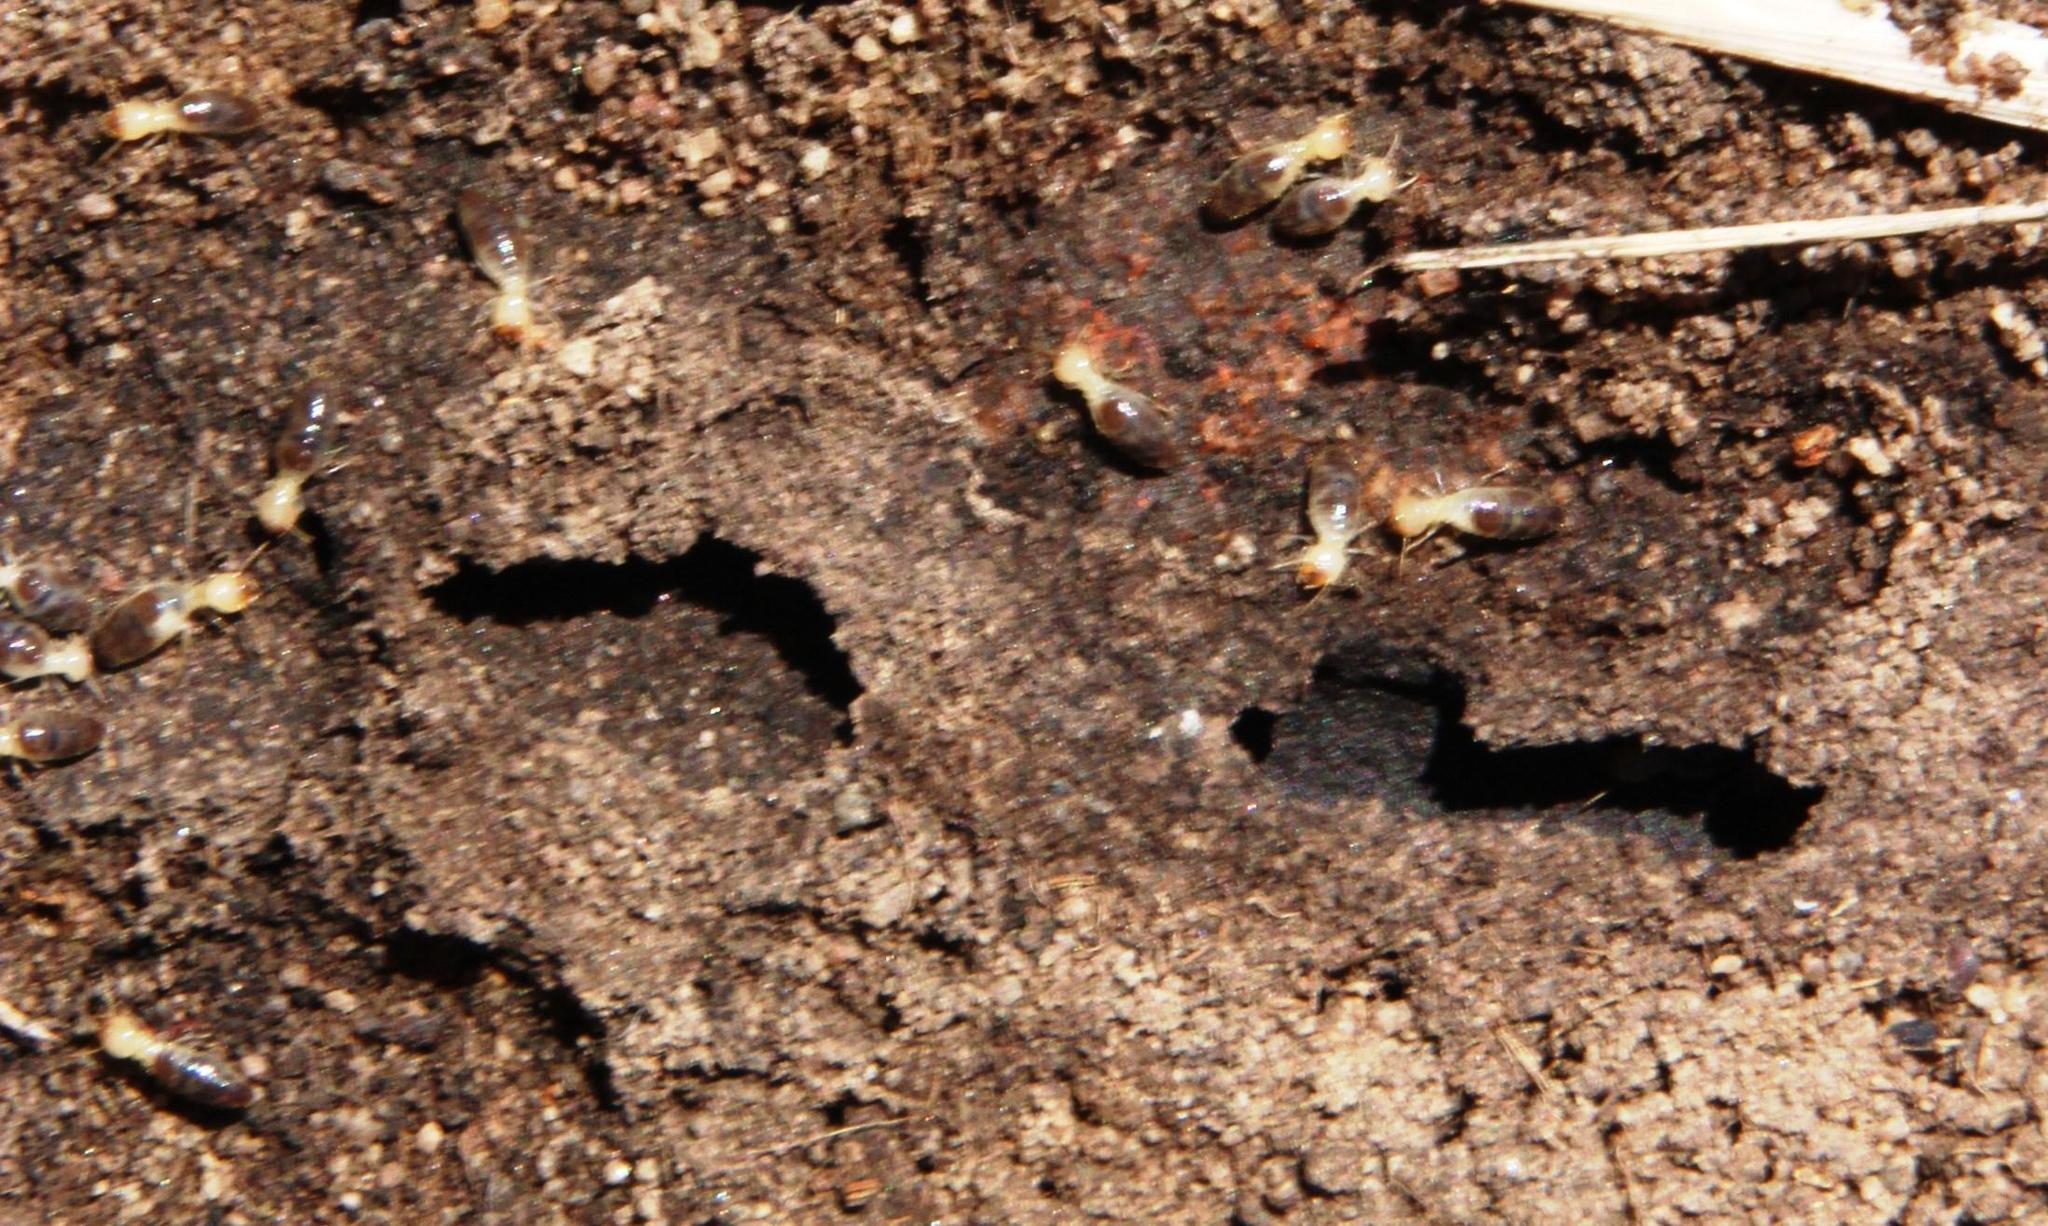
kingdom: Animalia
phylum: Arthropoda
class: Insecta
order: Blattodea
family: Termitidae
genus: Amitermes
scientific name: Amitermes hastatus
